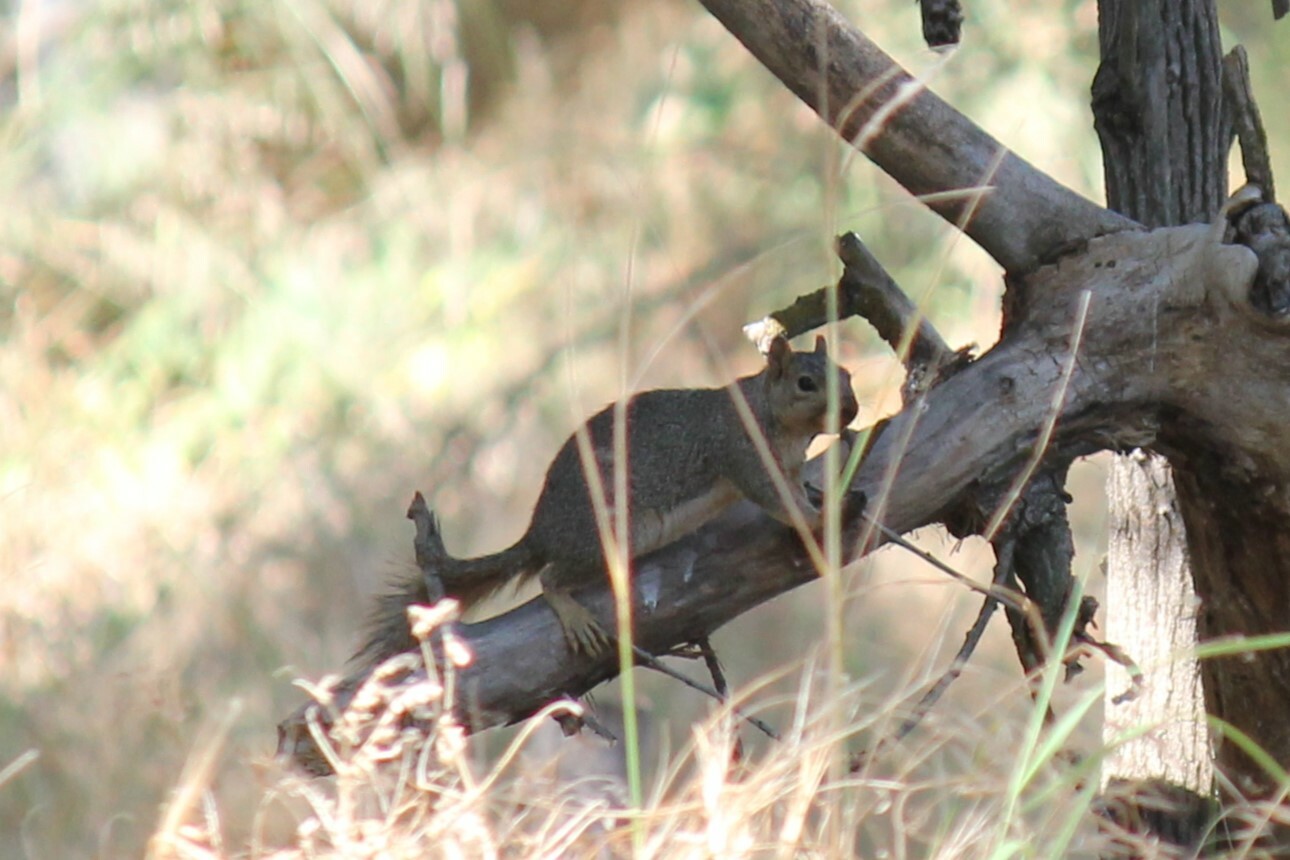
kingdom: Animalia
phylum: Chordata
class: Mammalia
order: Rodentia
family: Sciuridae
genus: Sciurus
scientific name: Sciurus niger
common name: Fox squirrel
